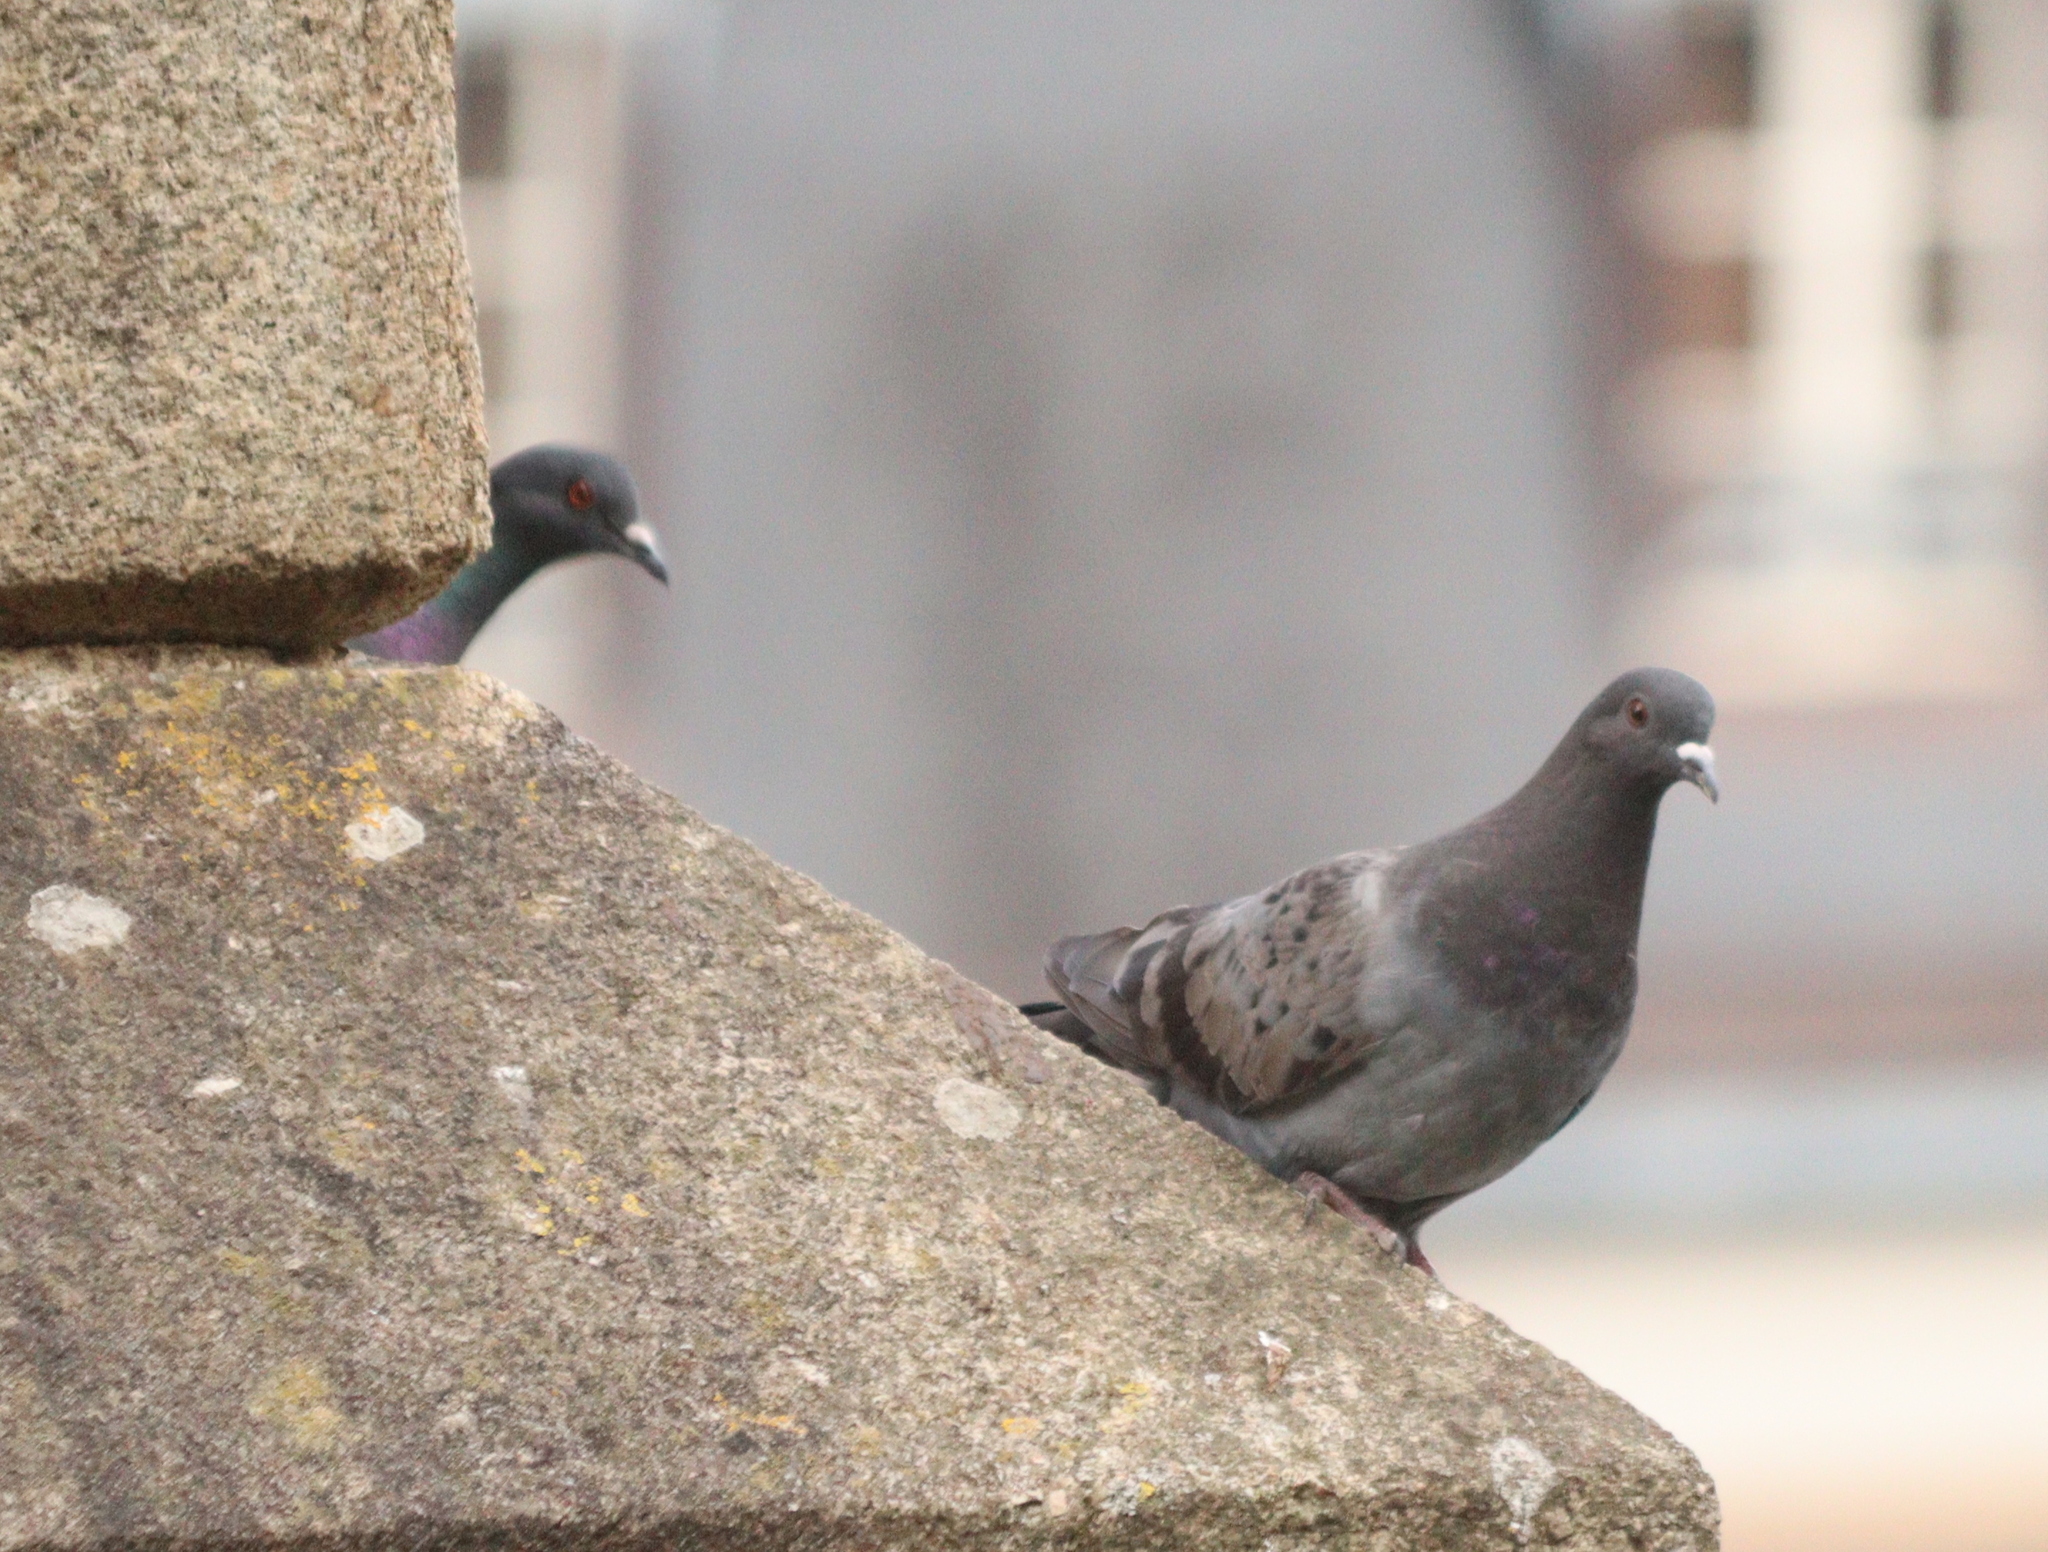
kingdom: Animalia
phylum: Chordata
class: Aves
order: Columbiformes
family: Columbidae
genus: Columba
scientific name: Columba livia
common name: Rock pigeon
